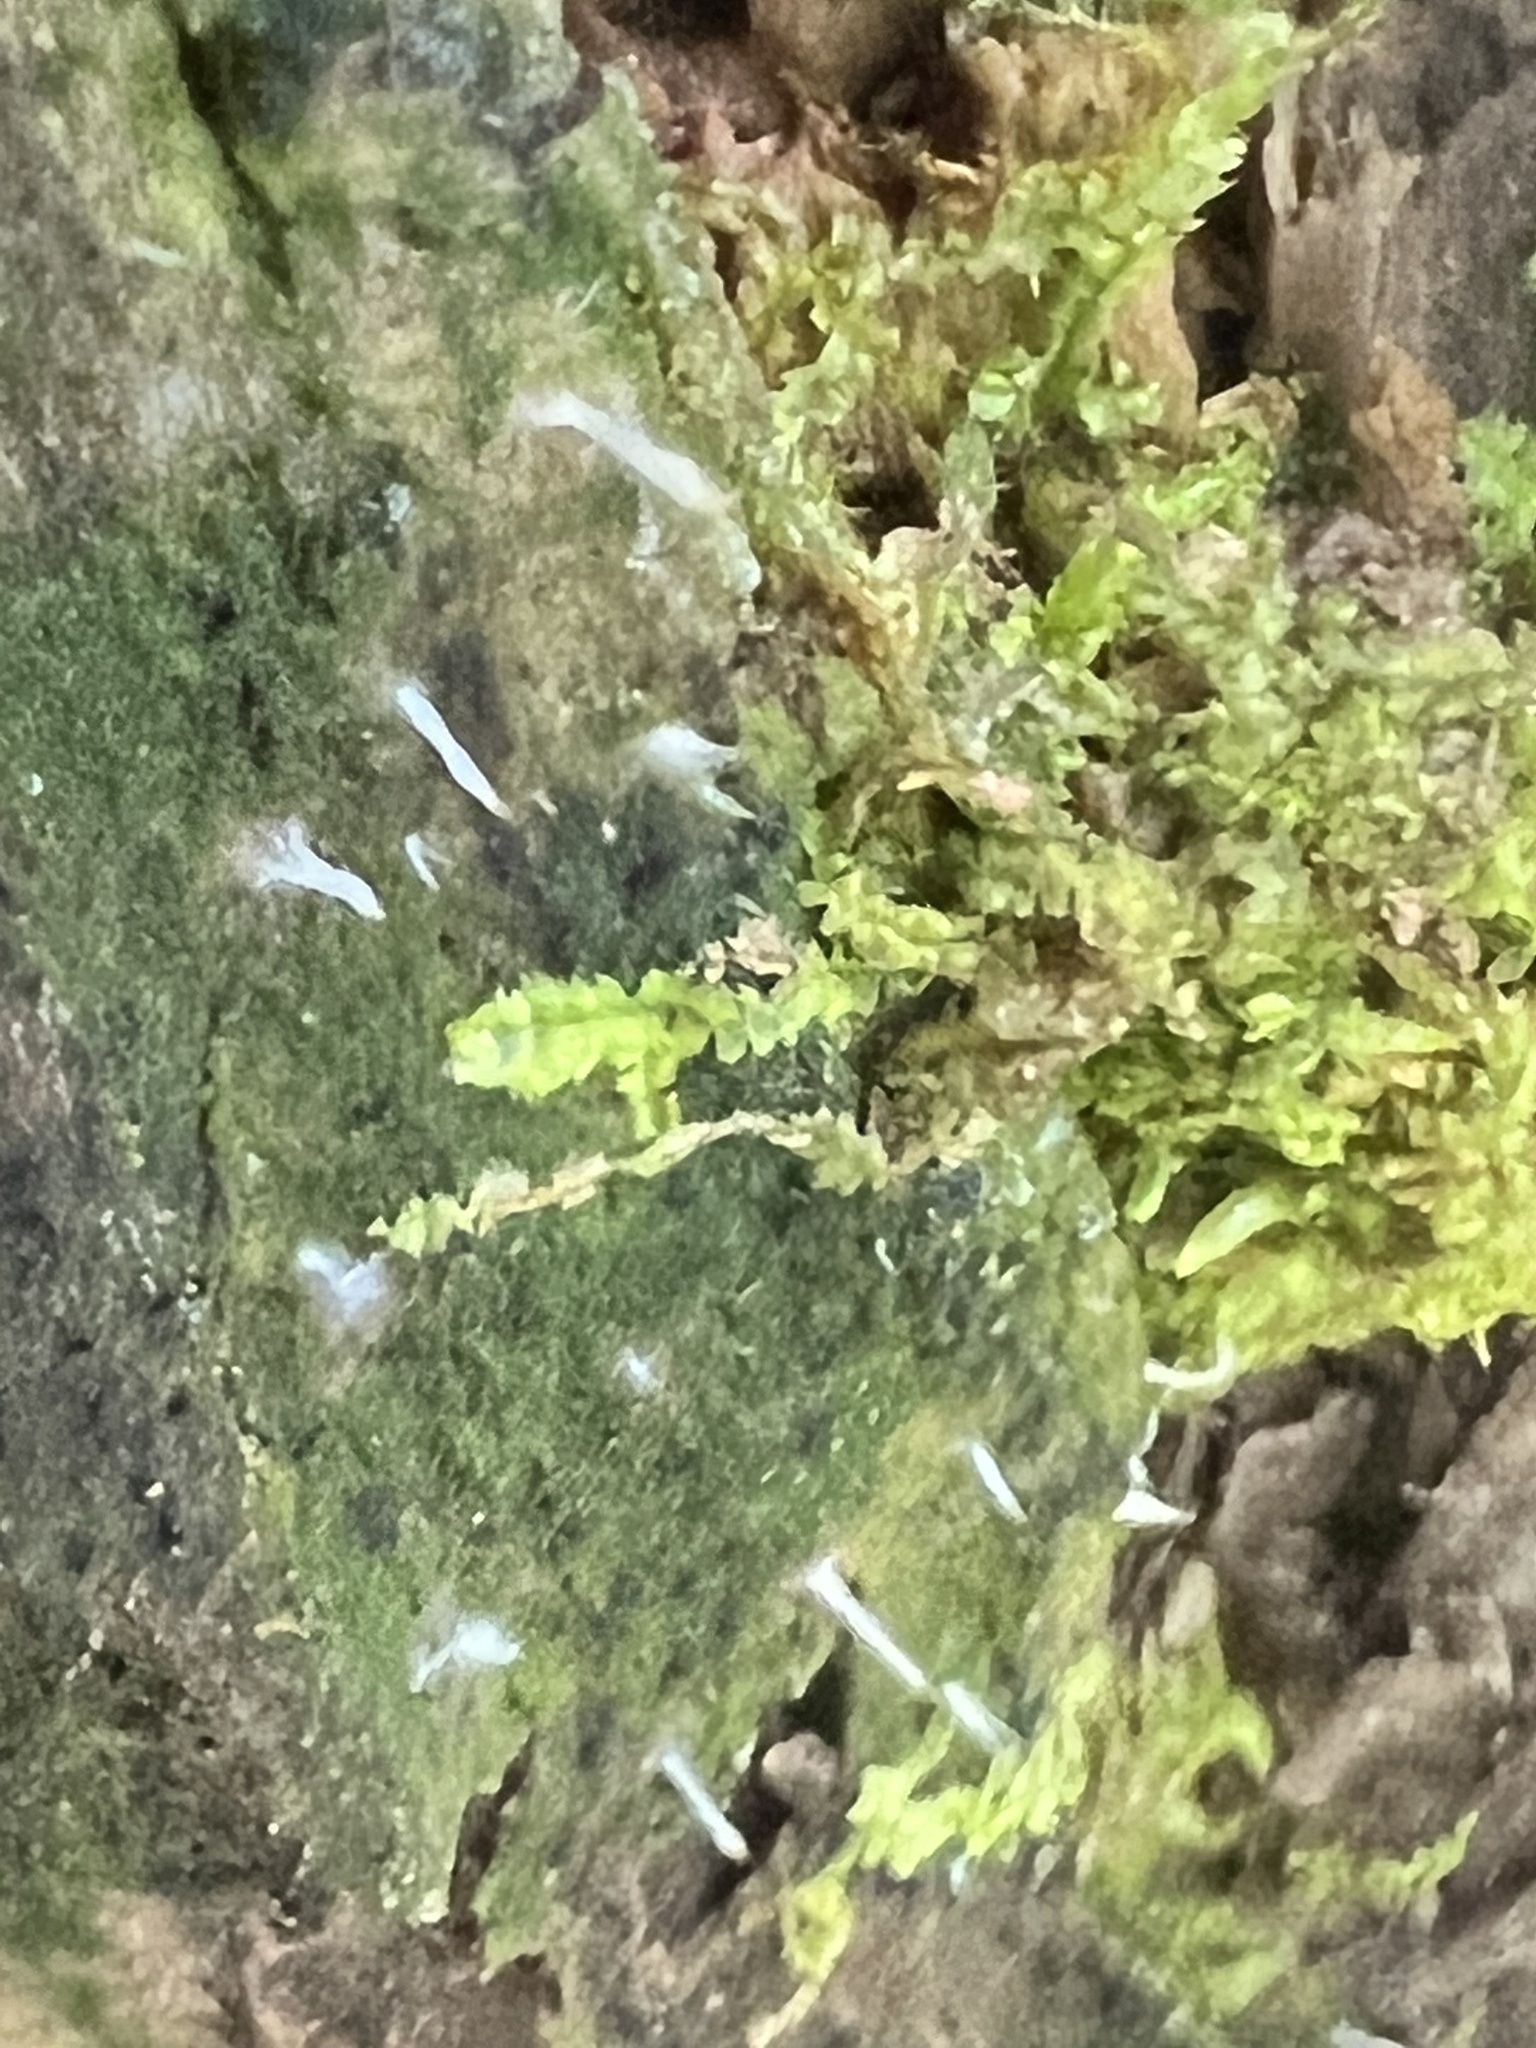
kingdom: Fungi
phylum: Basidiomycota
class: Agaricomycetes
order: Cantharellales
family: Hydnaceae
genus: Multiclavula
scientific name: Multiclavula mucida
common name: White green-algae coral
